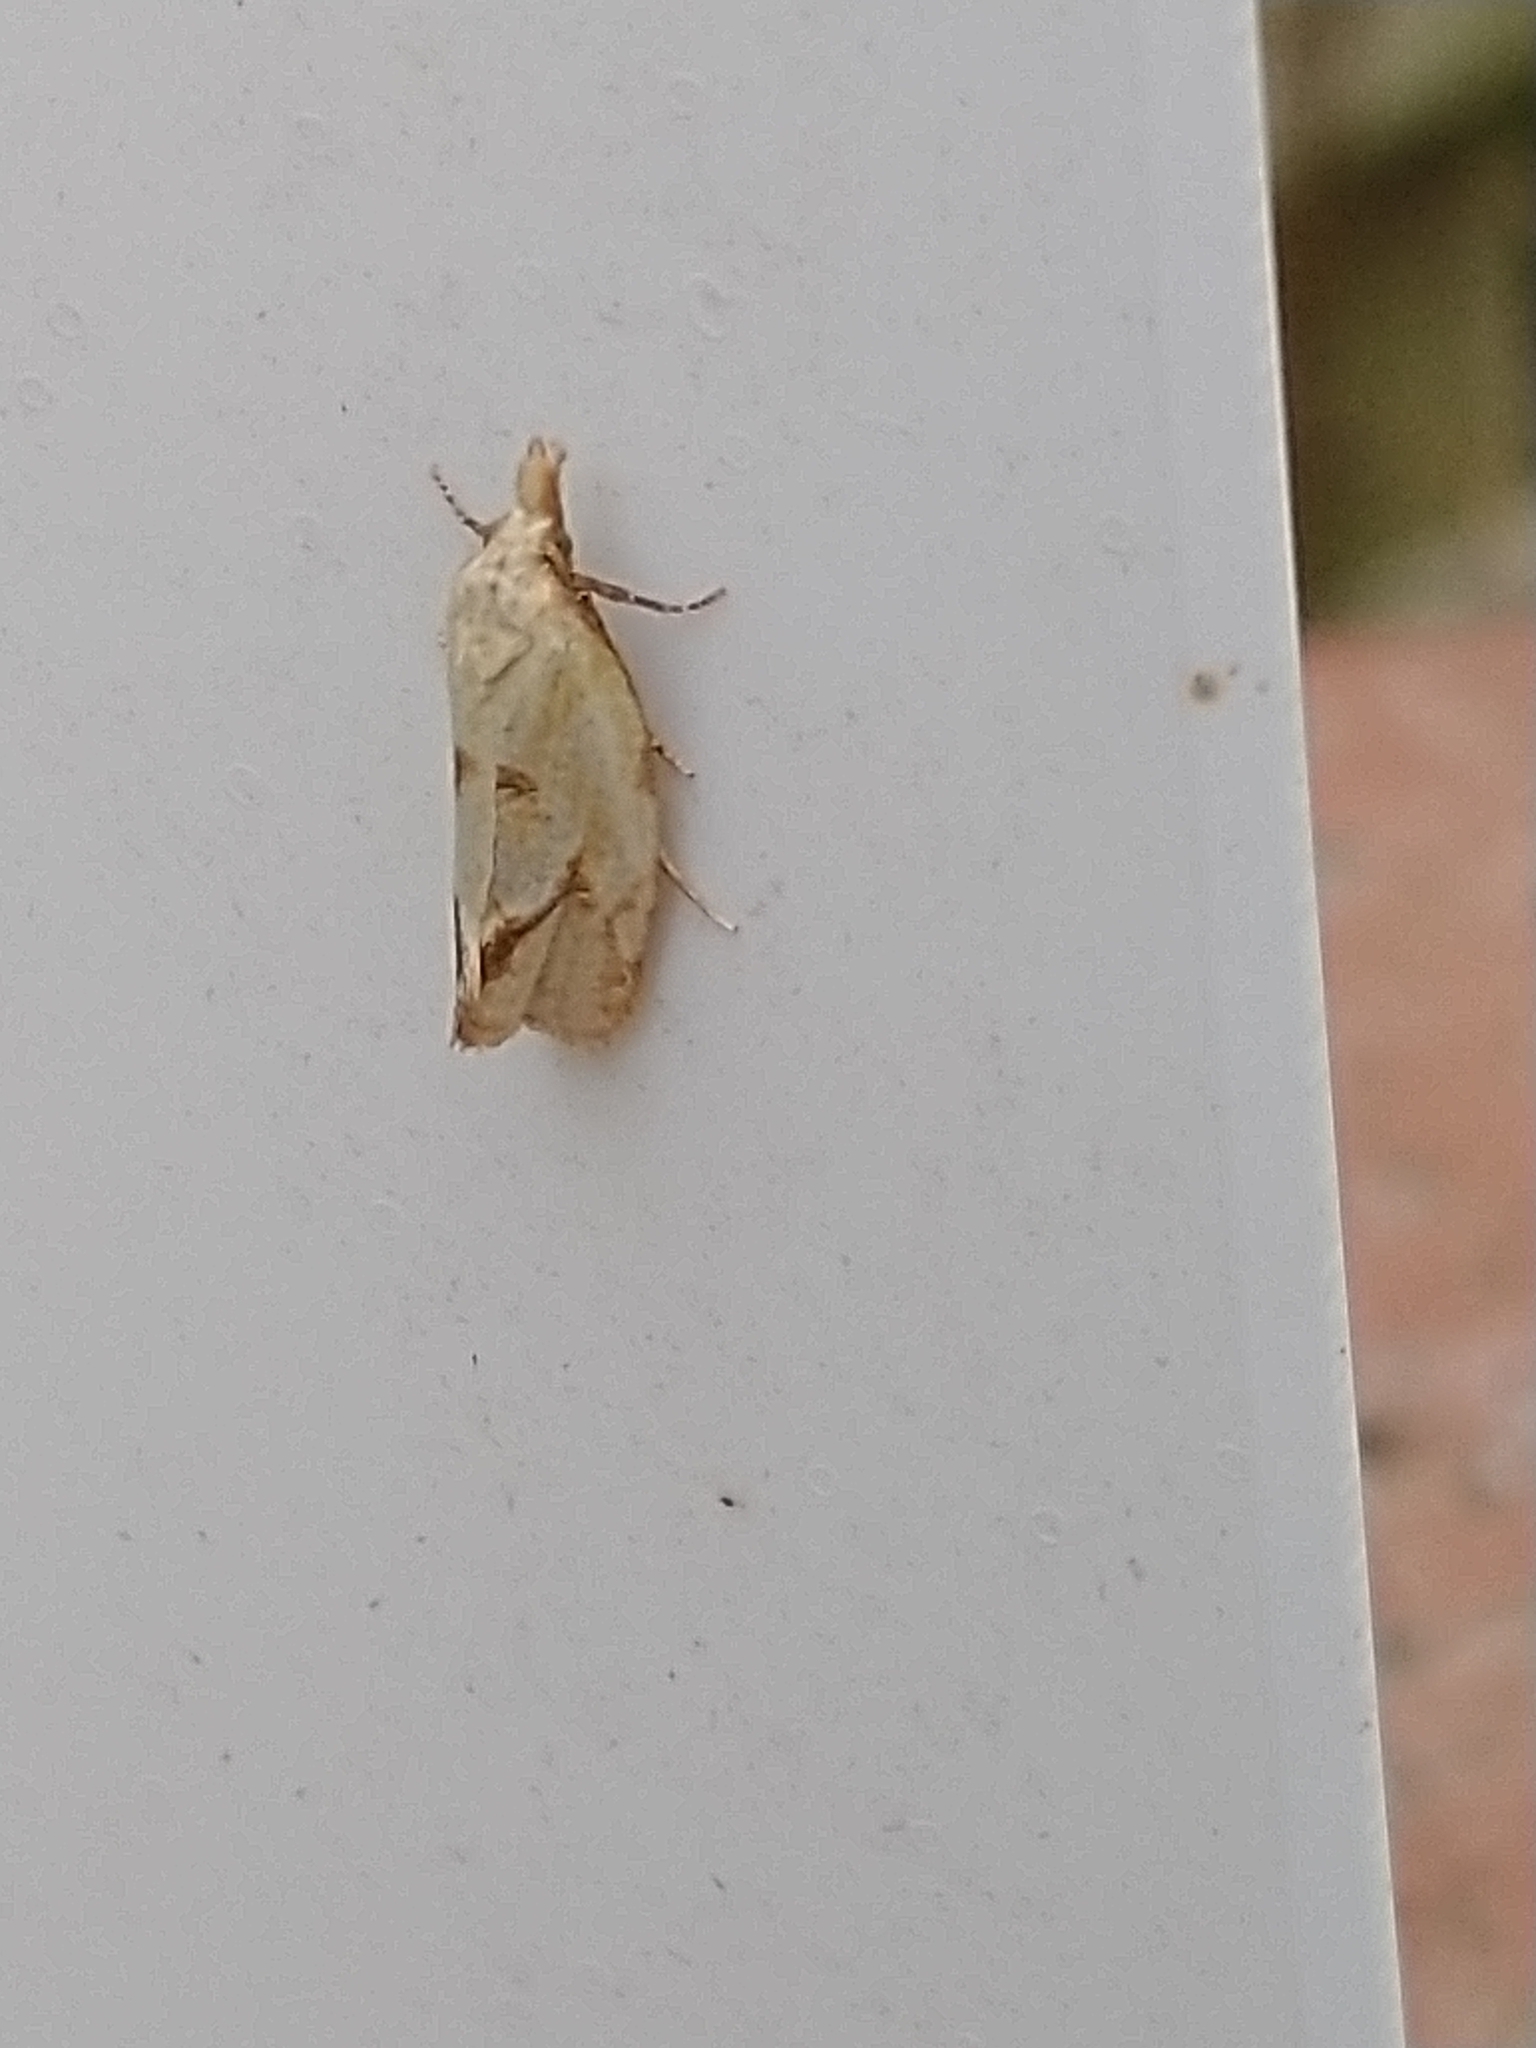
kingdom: Animalia
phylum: Arthropoda
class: Insecta
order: Lepidoptera
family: Tortricidae
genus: Agapeta
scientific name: Agapeta hamana
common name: Common yellow conch
